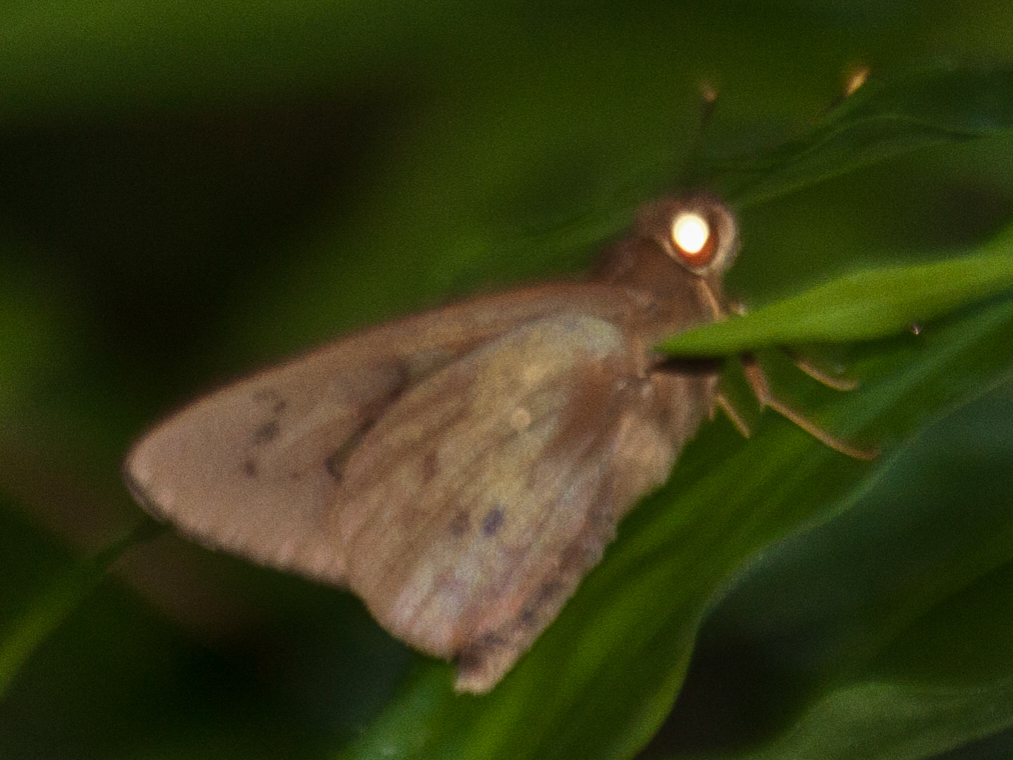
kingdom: Animalia
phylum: Arthropoda
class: Insecta
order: Lepidoptera
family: Hesperiidae
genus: Hidari
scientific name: Hidari irava
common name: Coconut skipper
